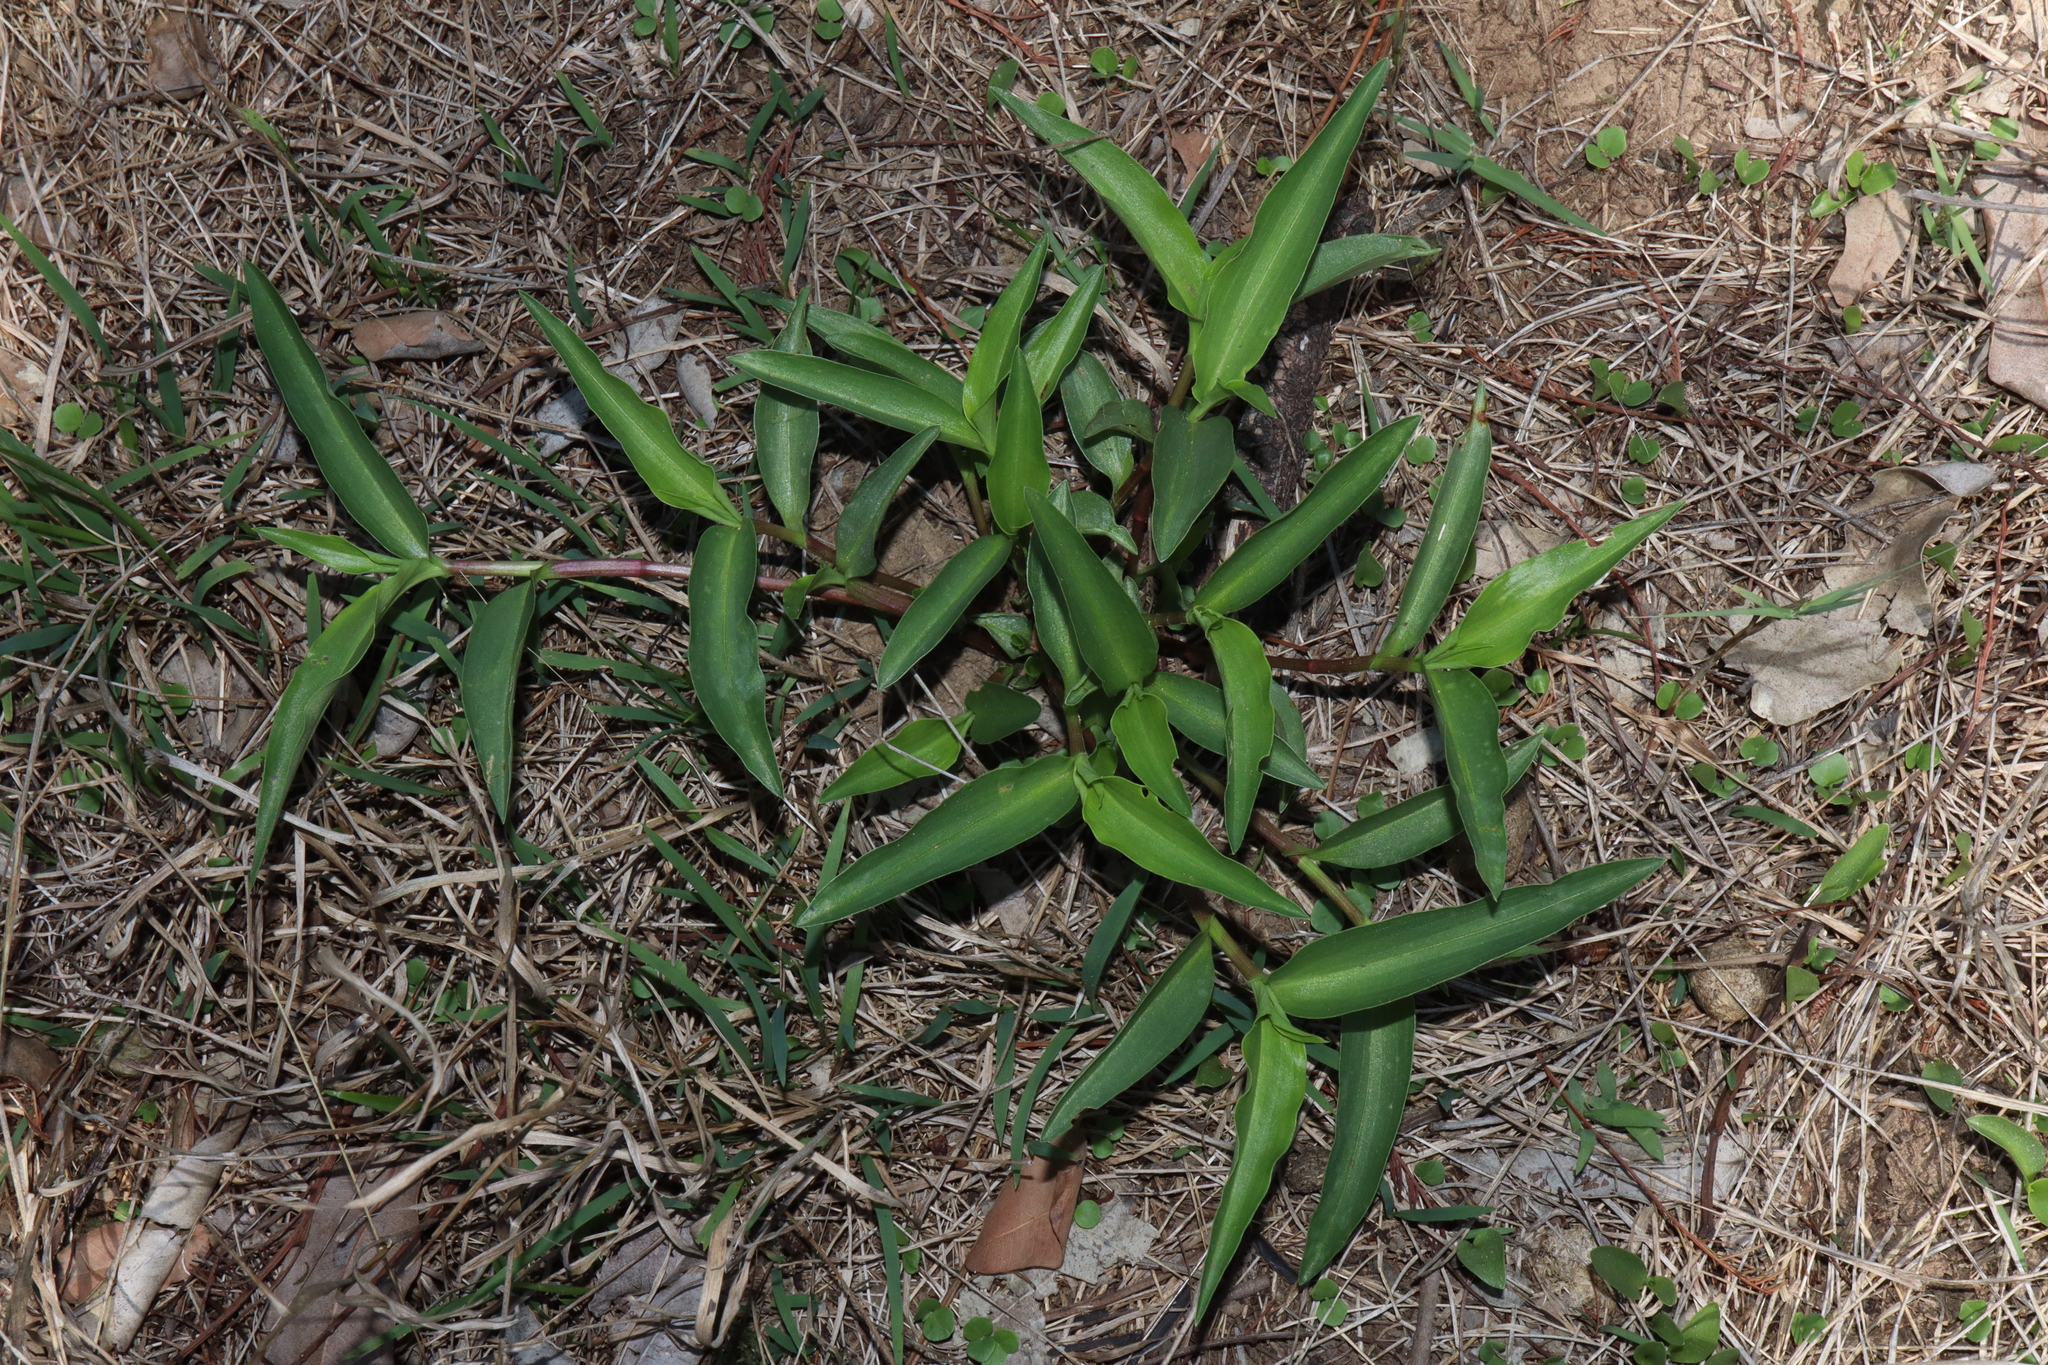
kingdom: Plantae
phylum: Tracheophyta
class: Liliopsida
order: Commelinales
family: Commelinaceae
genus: Commelina
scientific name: Commelina cyanea
